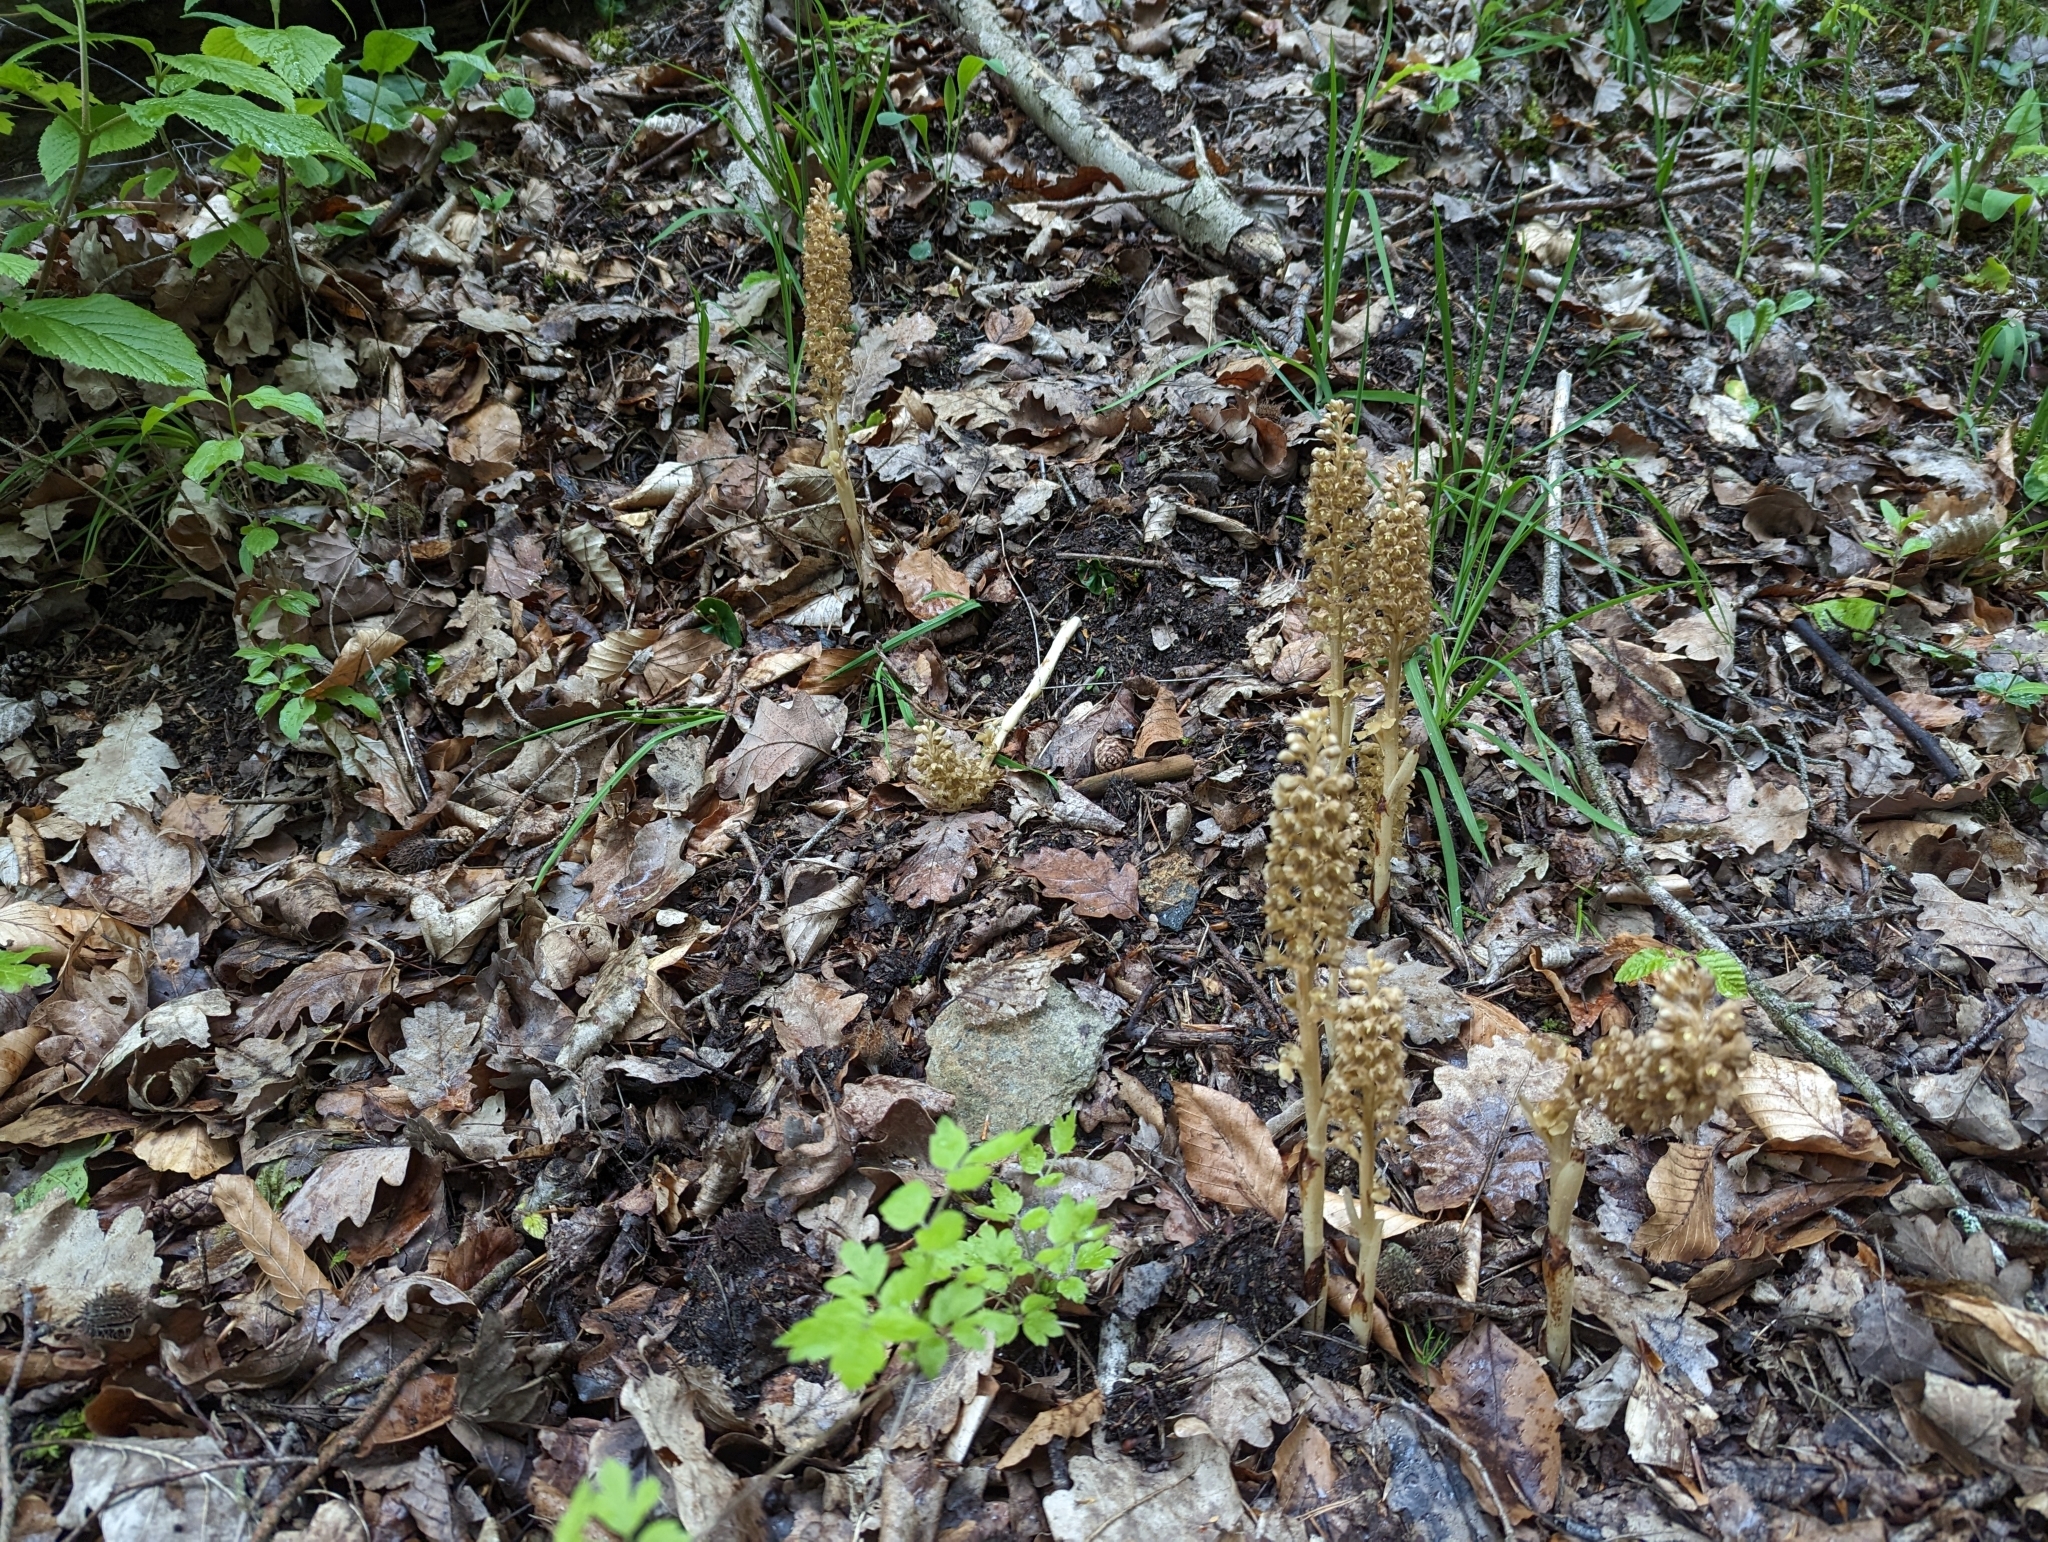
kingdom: Plantae
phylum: Tracheophyta
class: Liliopsida
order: Asparagales
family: Orchidaceae
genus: Neottia
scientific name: Neottia nidus-avis
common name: Bird's-nest orchid
